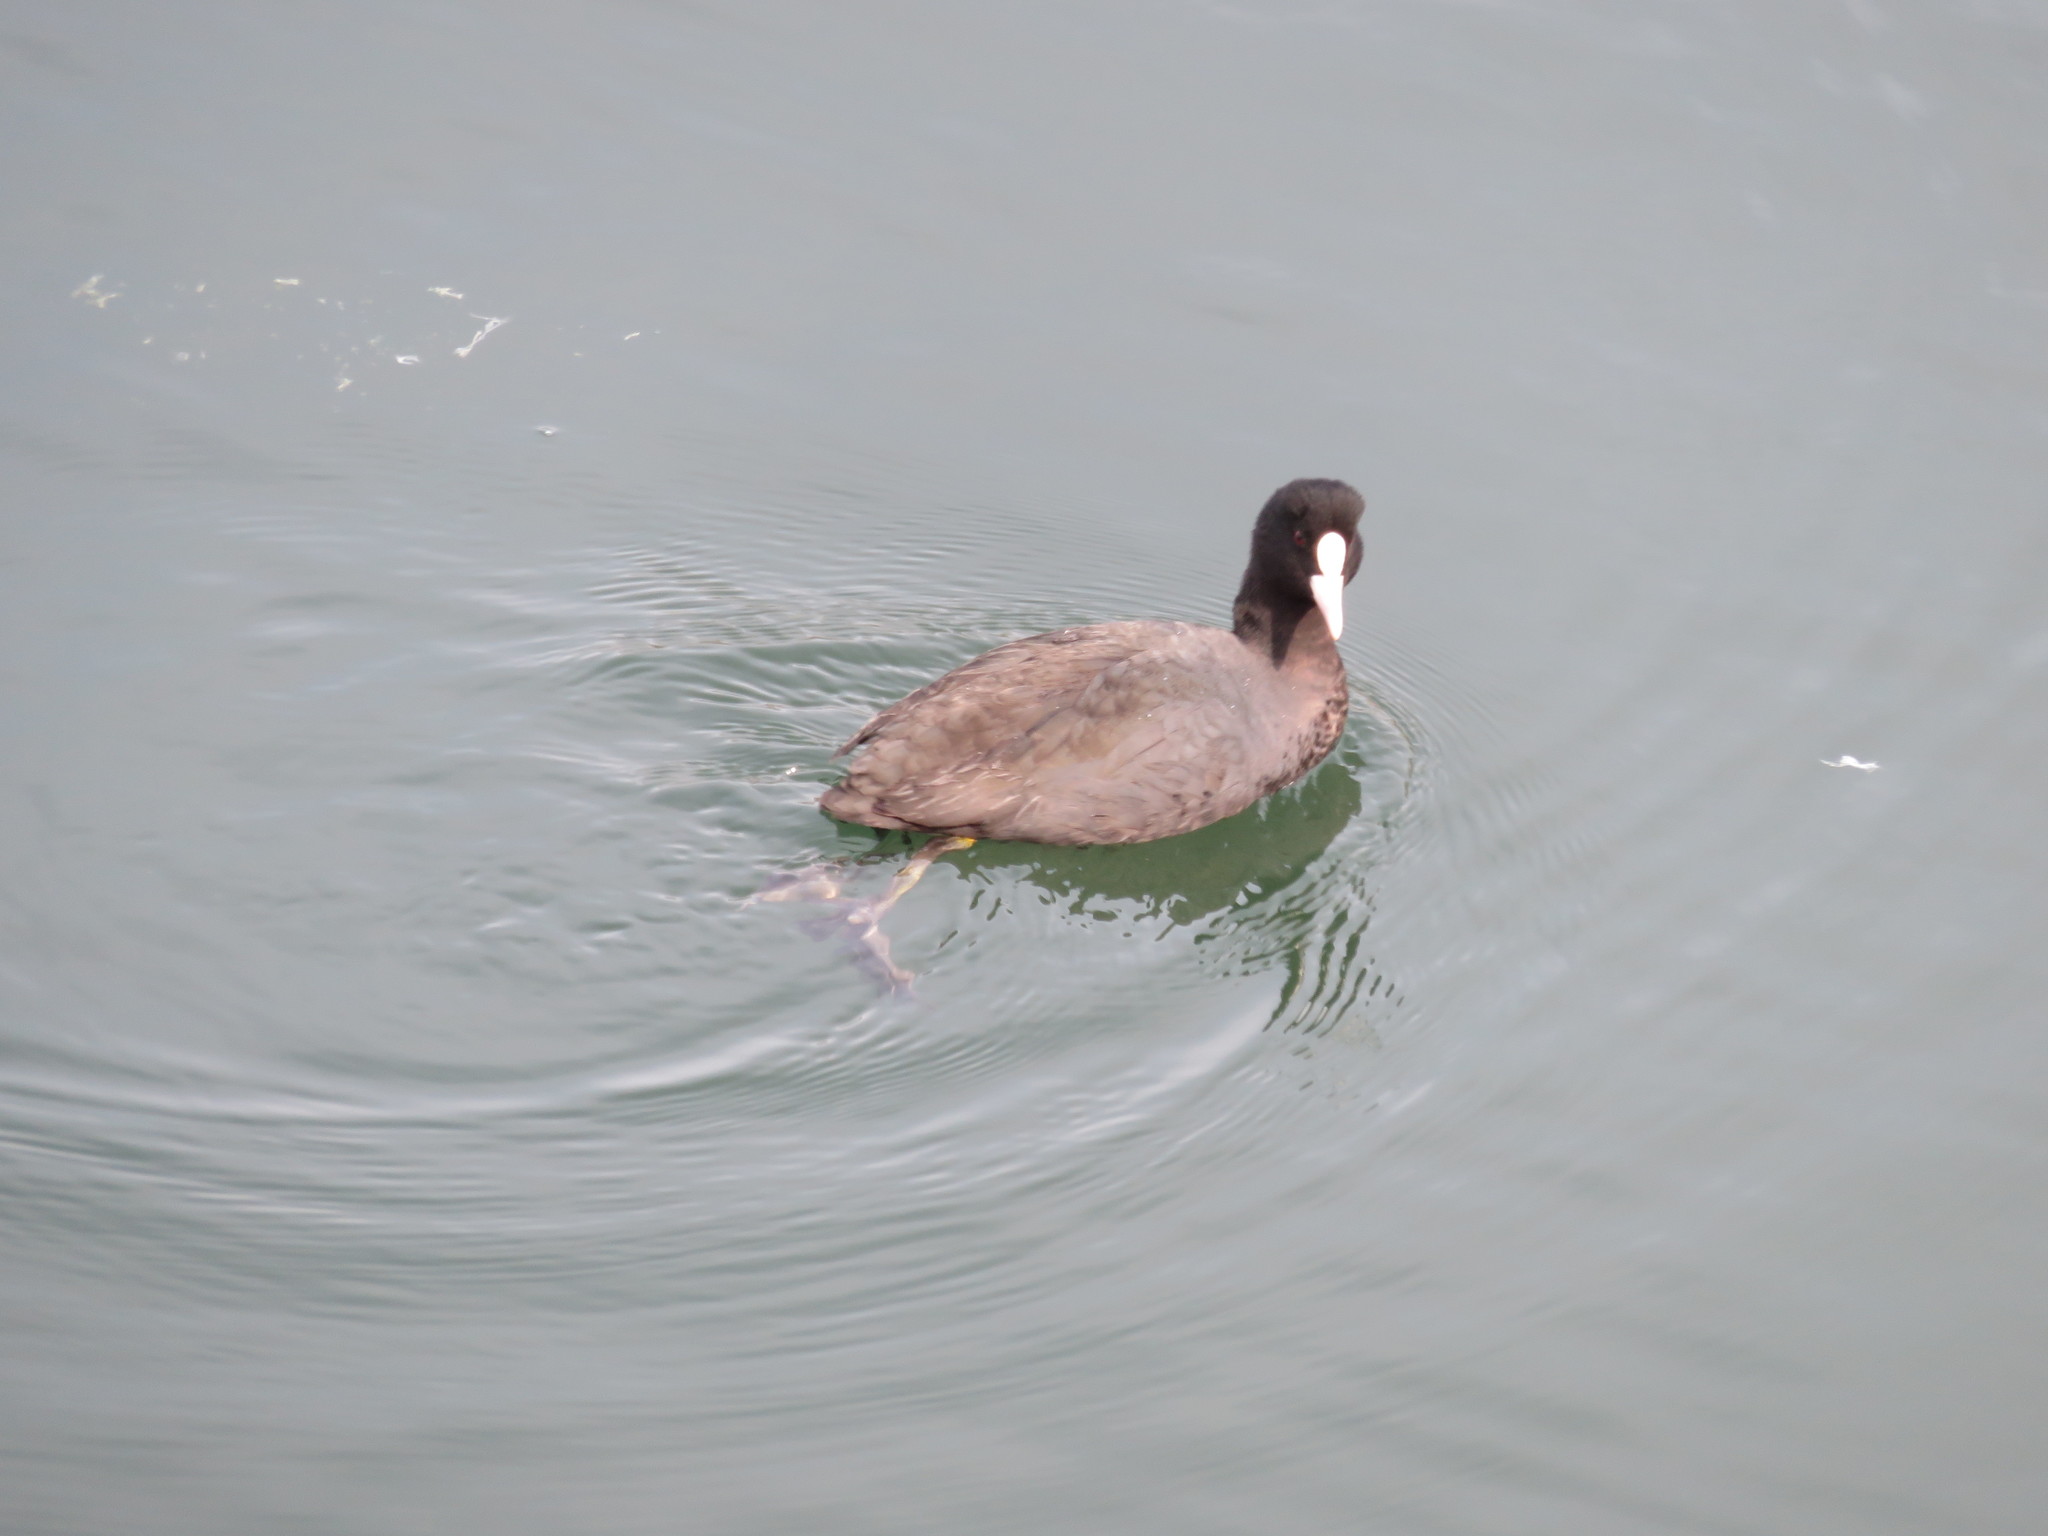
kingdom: Animalia
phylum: Chordata
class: Aves
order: Gruiformes
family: Rallidae
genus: Fulica
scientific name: Fulica atra
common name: Eurasian coot
